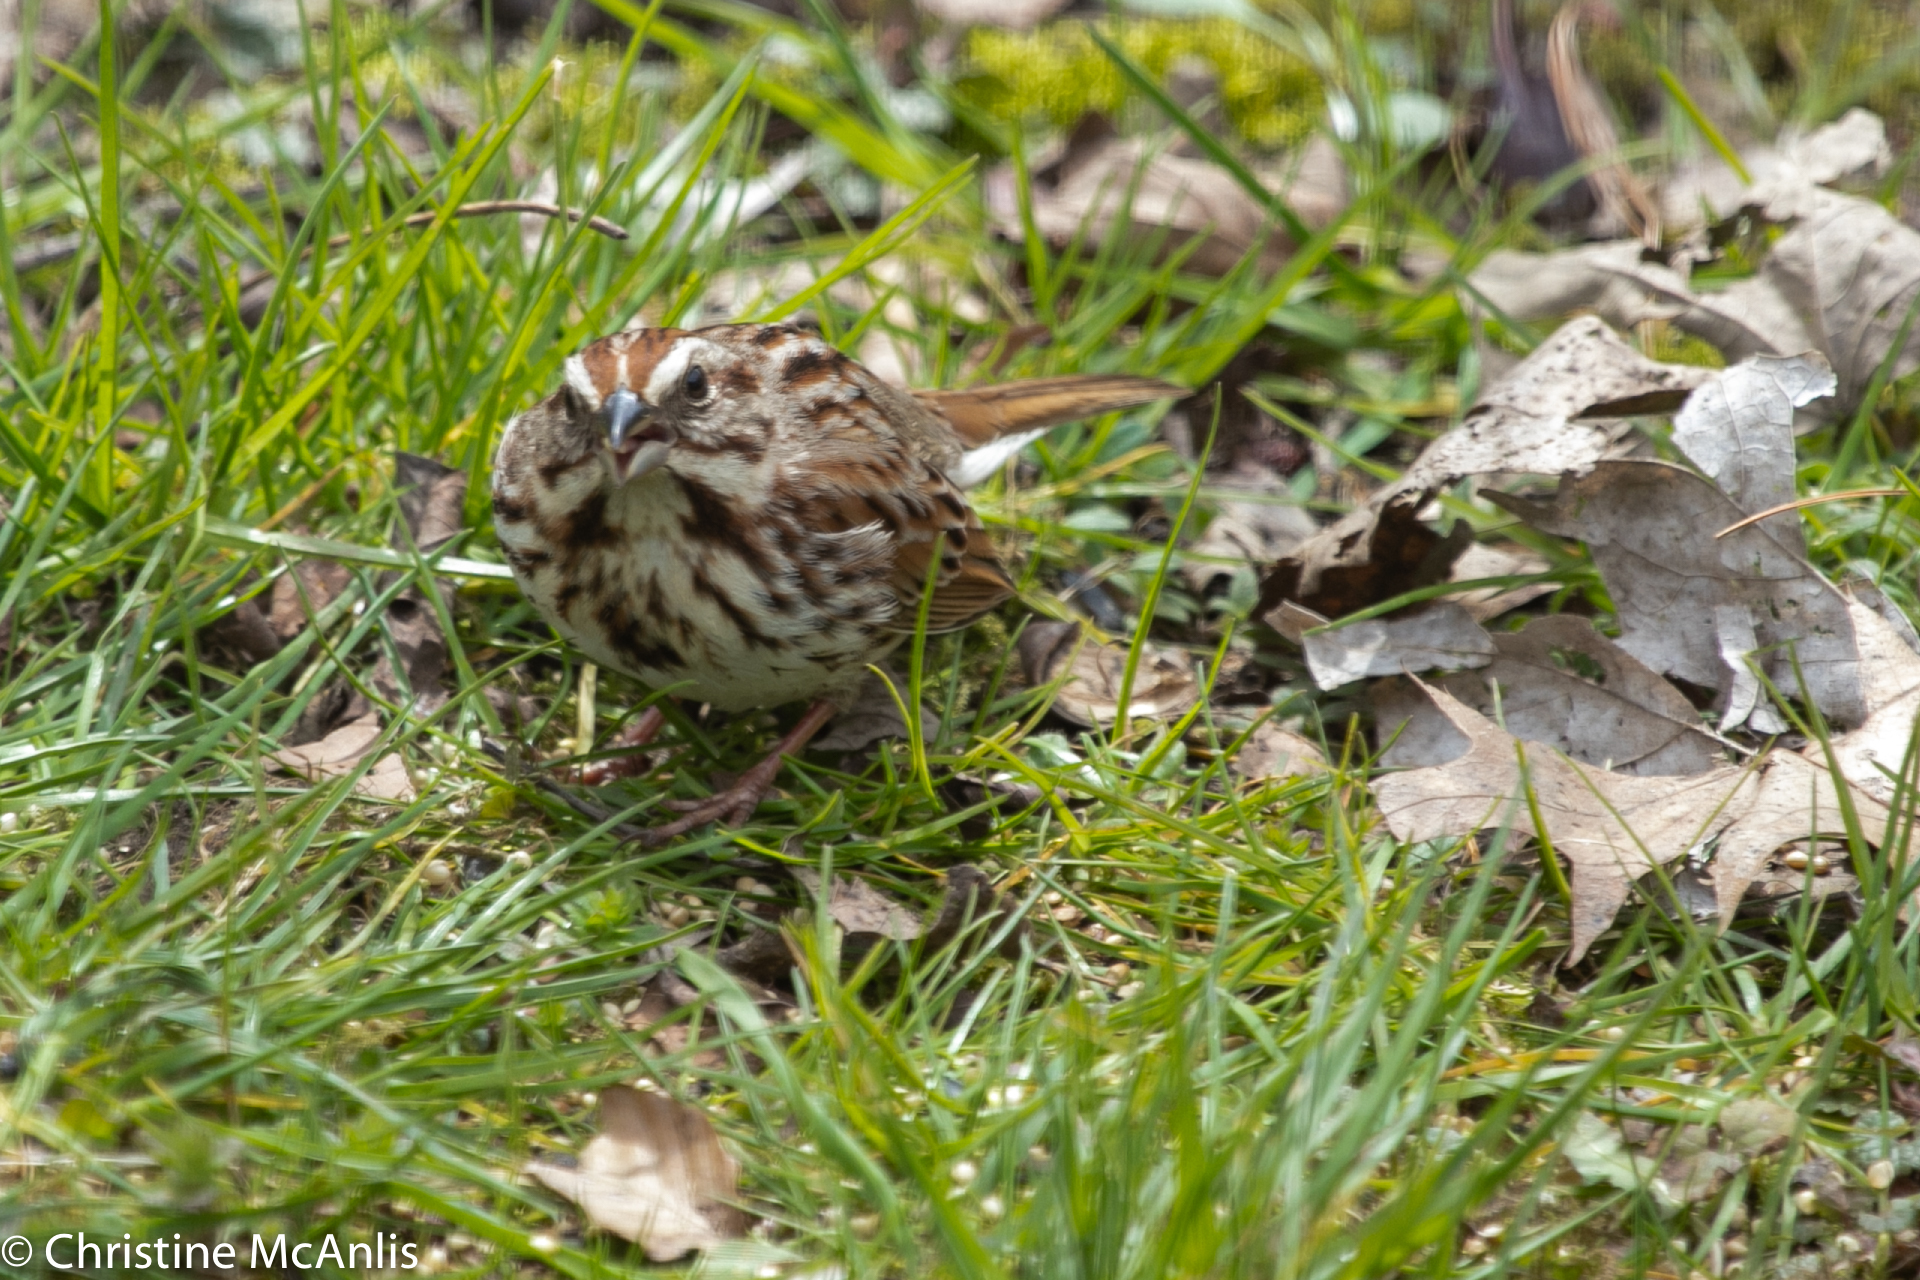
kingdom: Animalia
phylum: Chordata
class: Aves
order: Passeriformes
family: Passerellidae
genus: Melospiza
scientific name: Melospiza melodia
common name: Song sparrow
